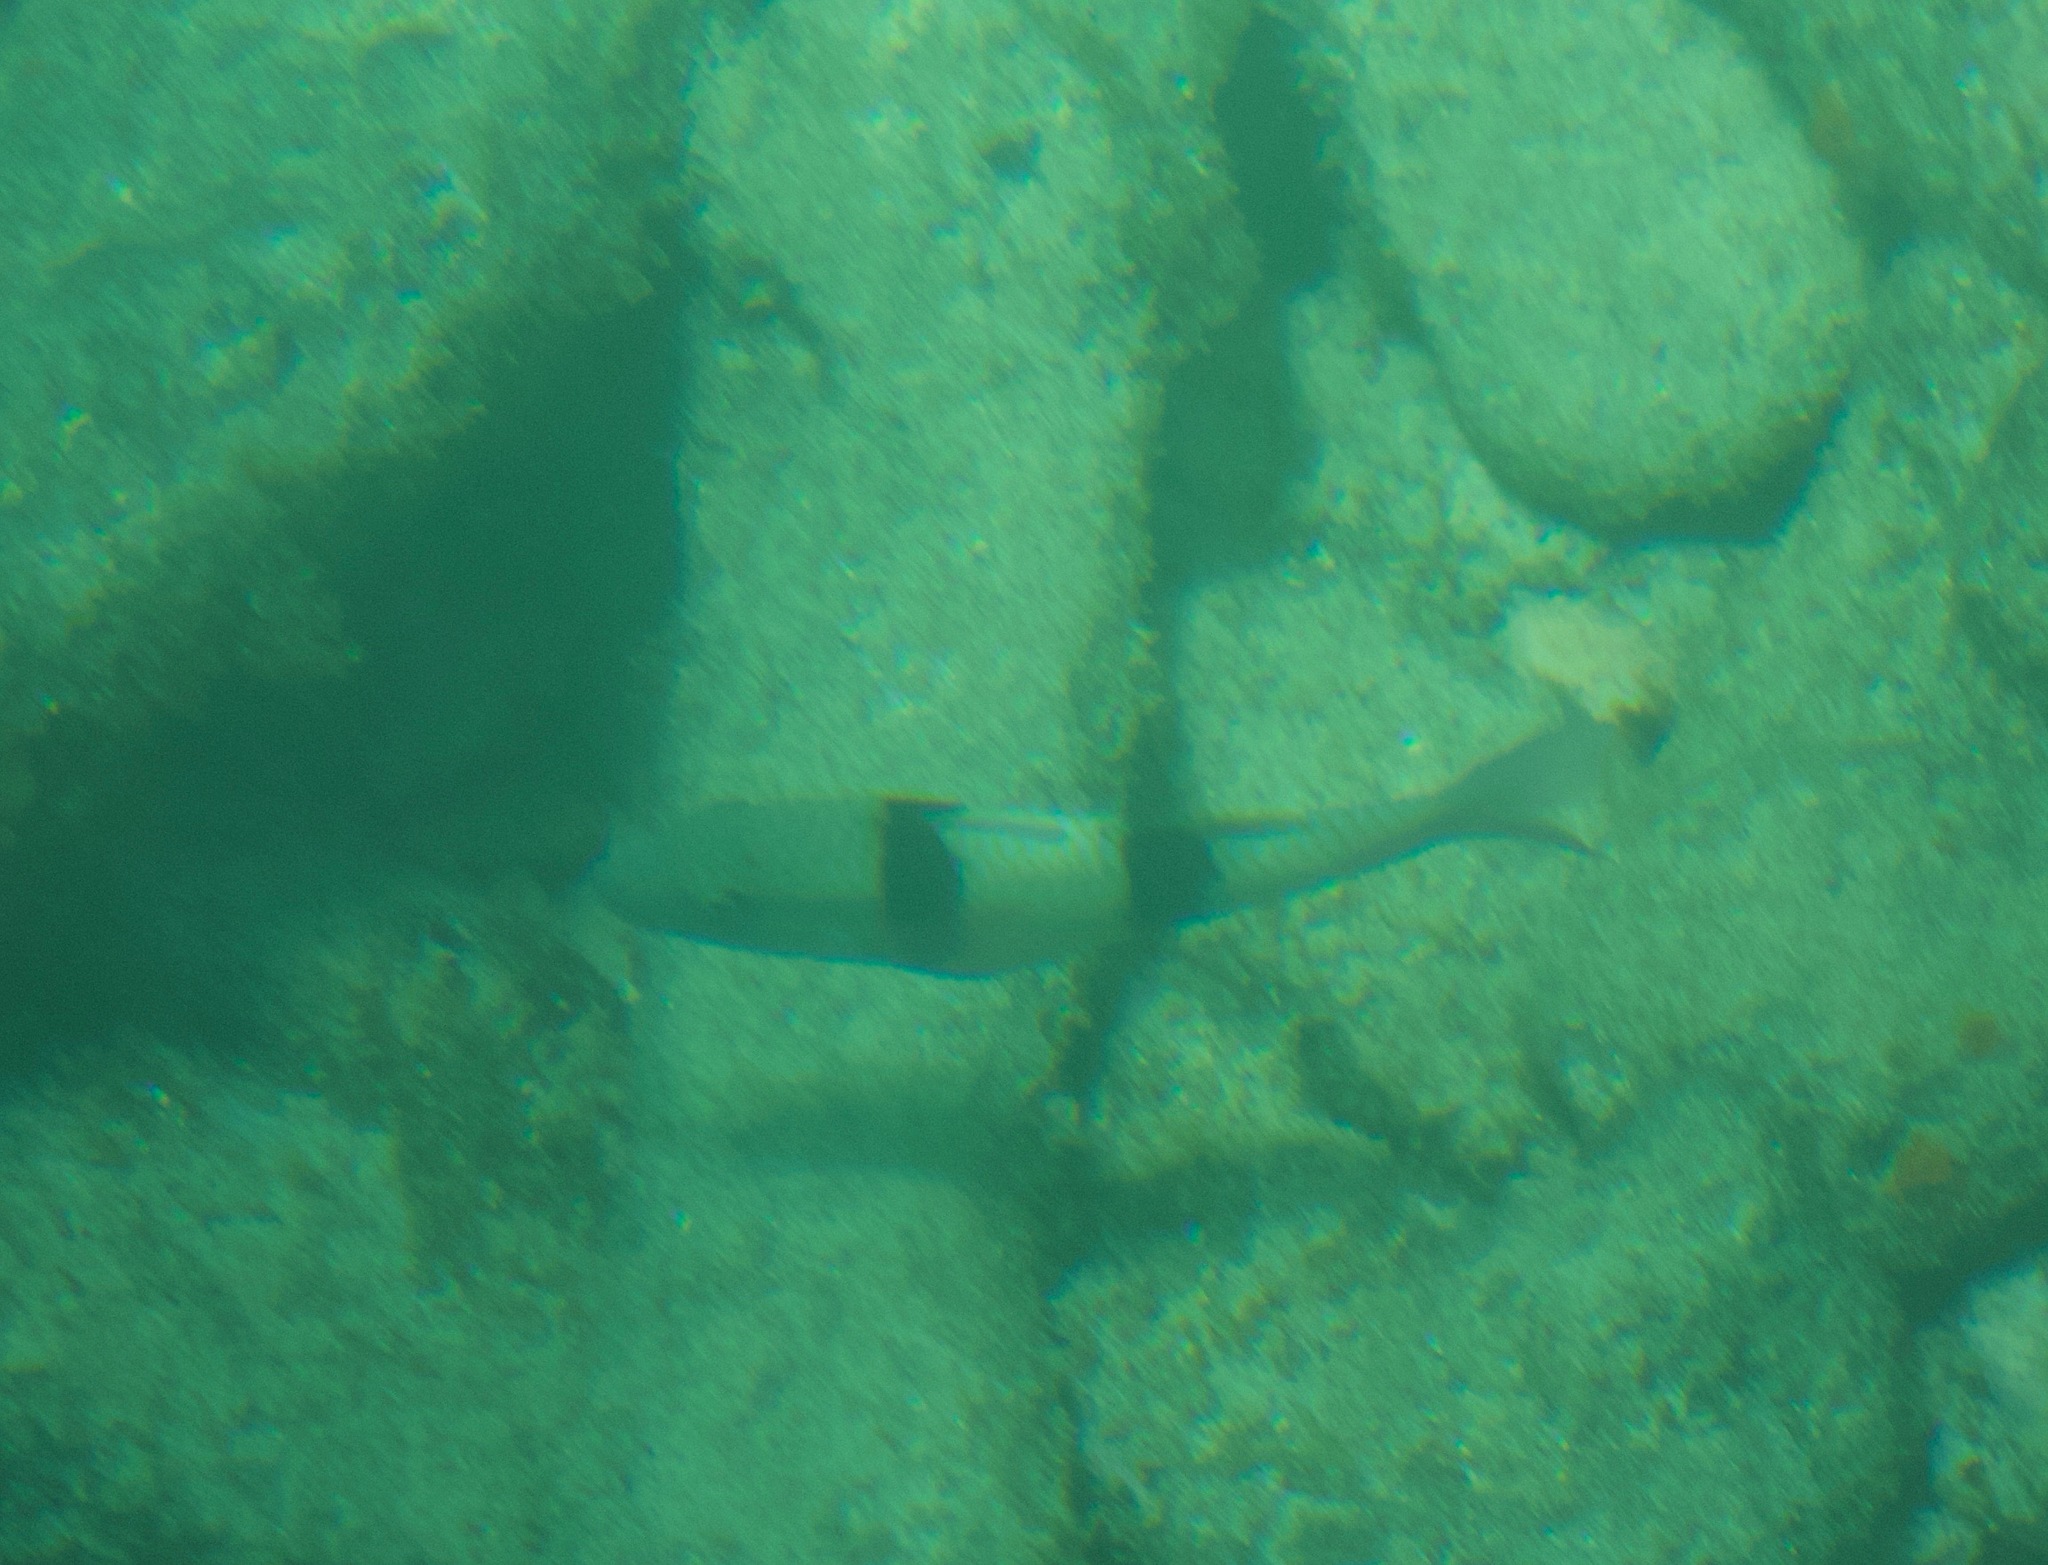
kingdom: Animalia
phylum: Chordata
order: Perciformes
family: Mullidae
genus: Parupeneus
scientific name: Parupeneus trifasciatus
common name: Doublebar goatfish
